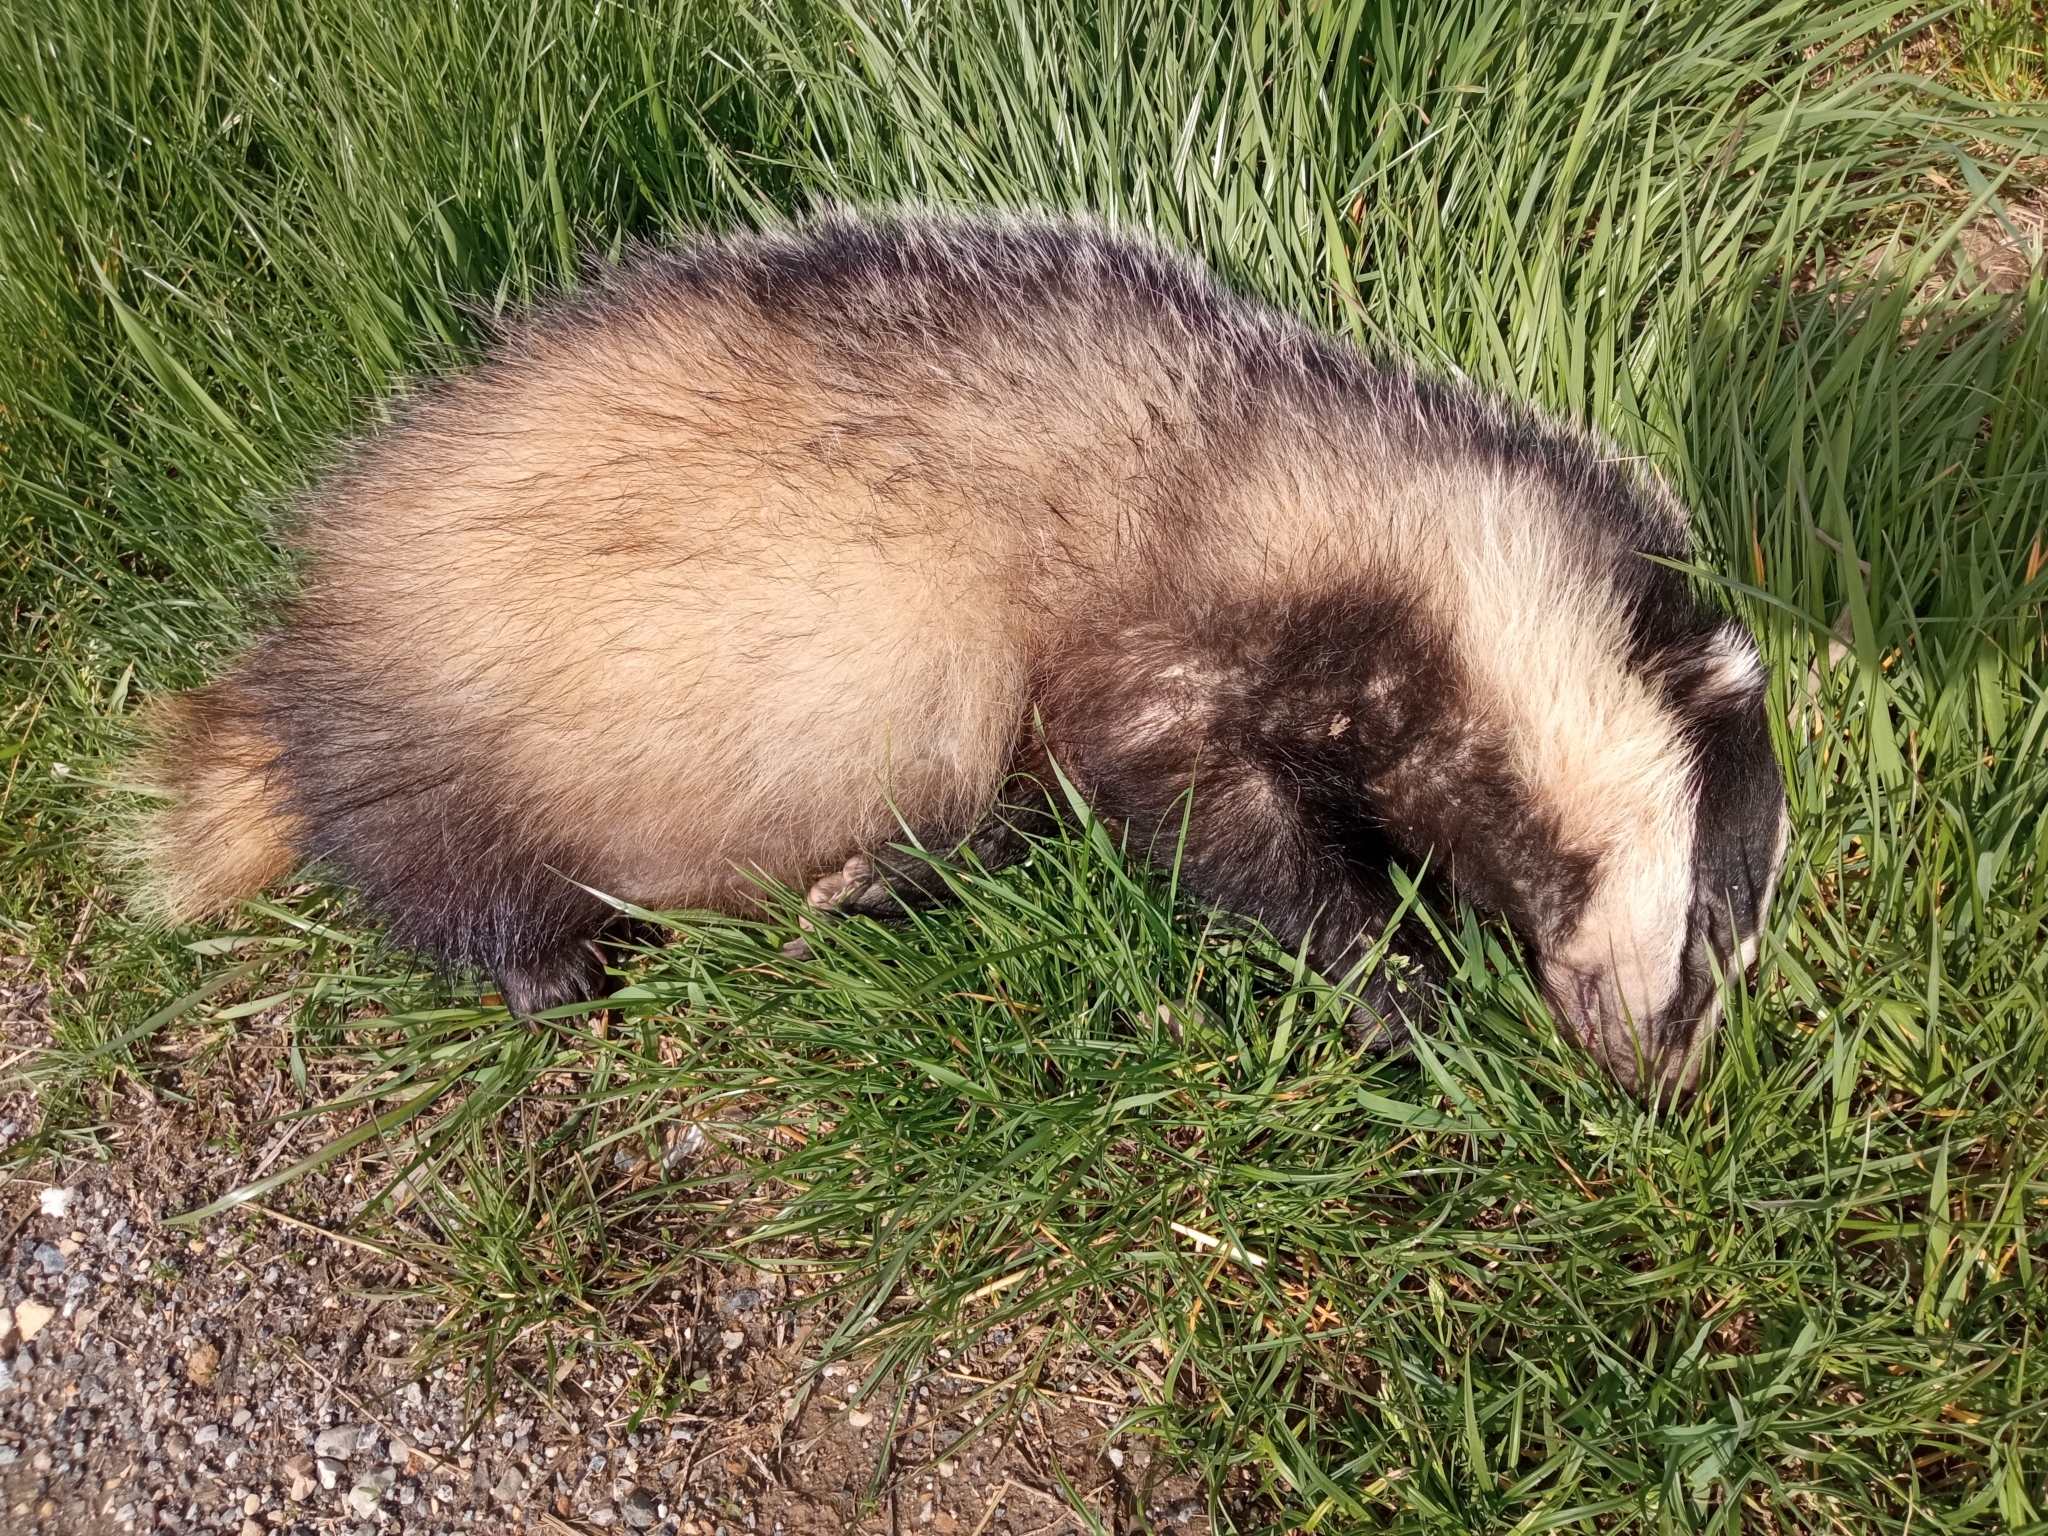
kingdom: Animalia
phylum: Chordata
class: Mammalia
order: Carnivora
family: Mustelidae
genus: Meles
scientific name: Meles meles
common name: Eurasian badger
